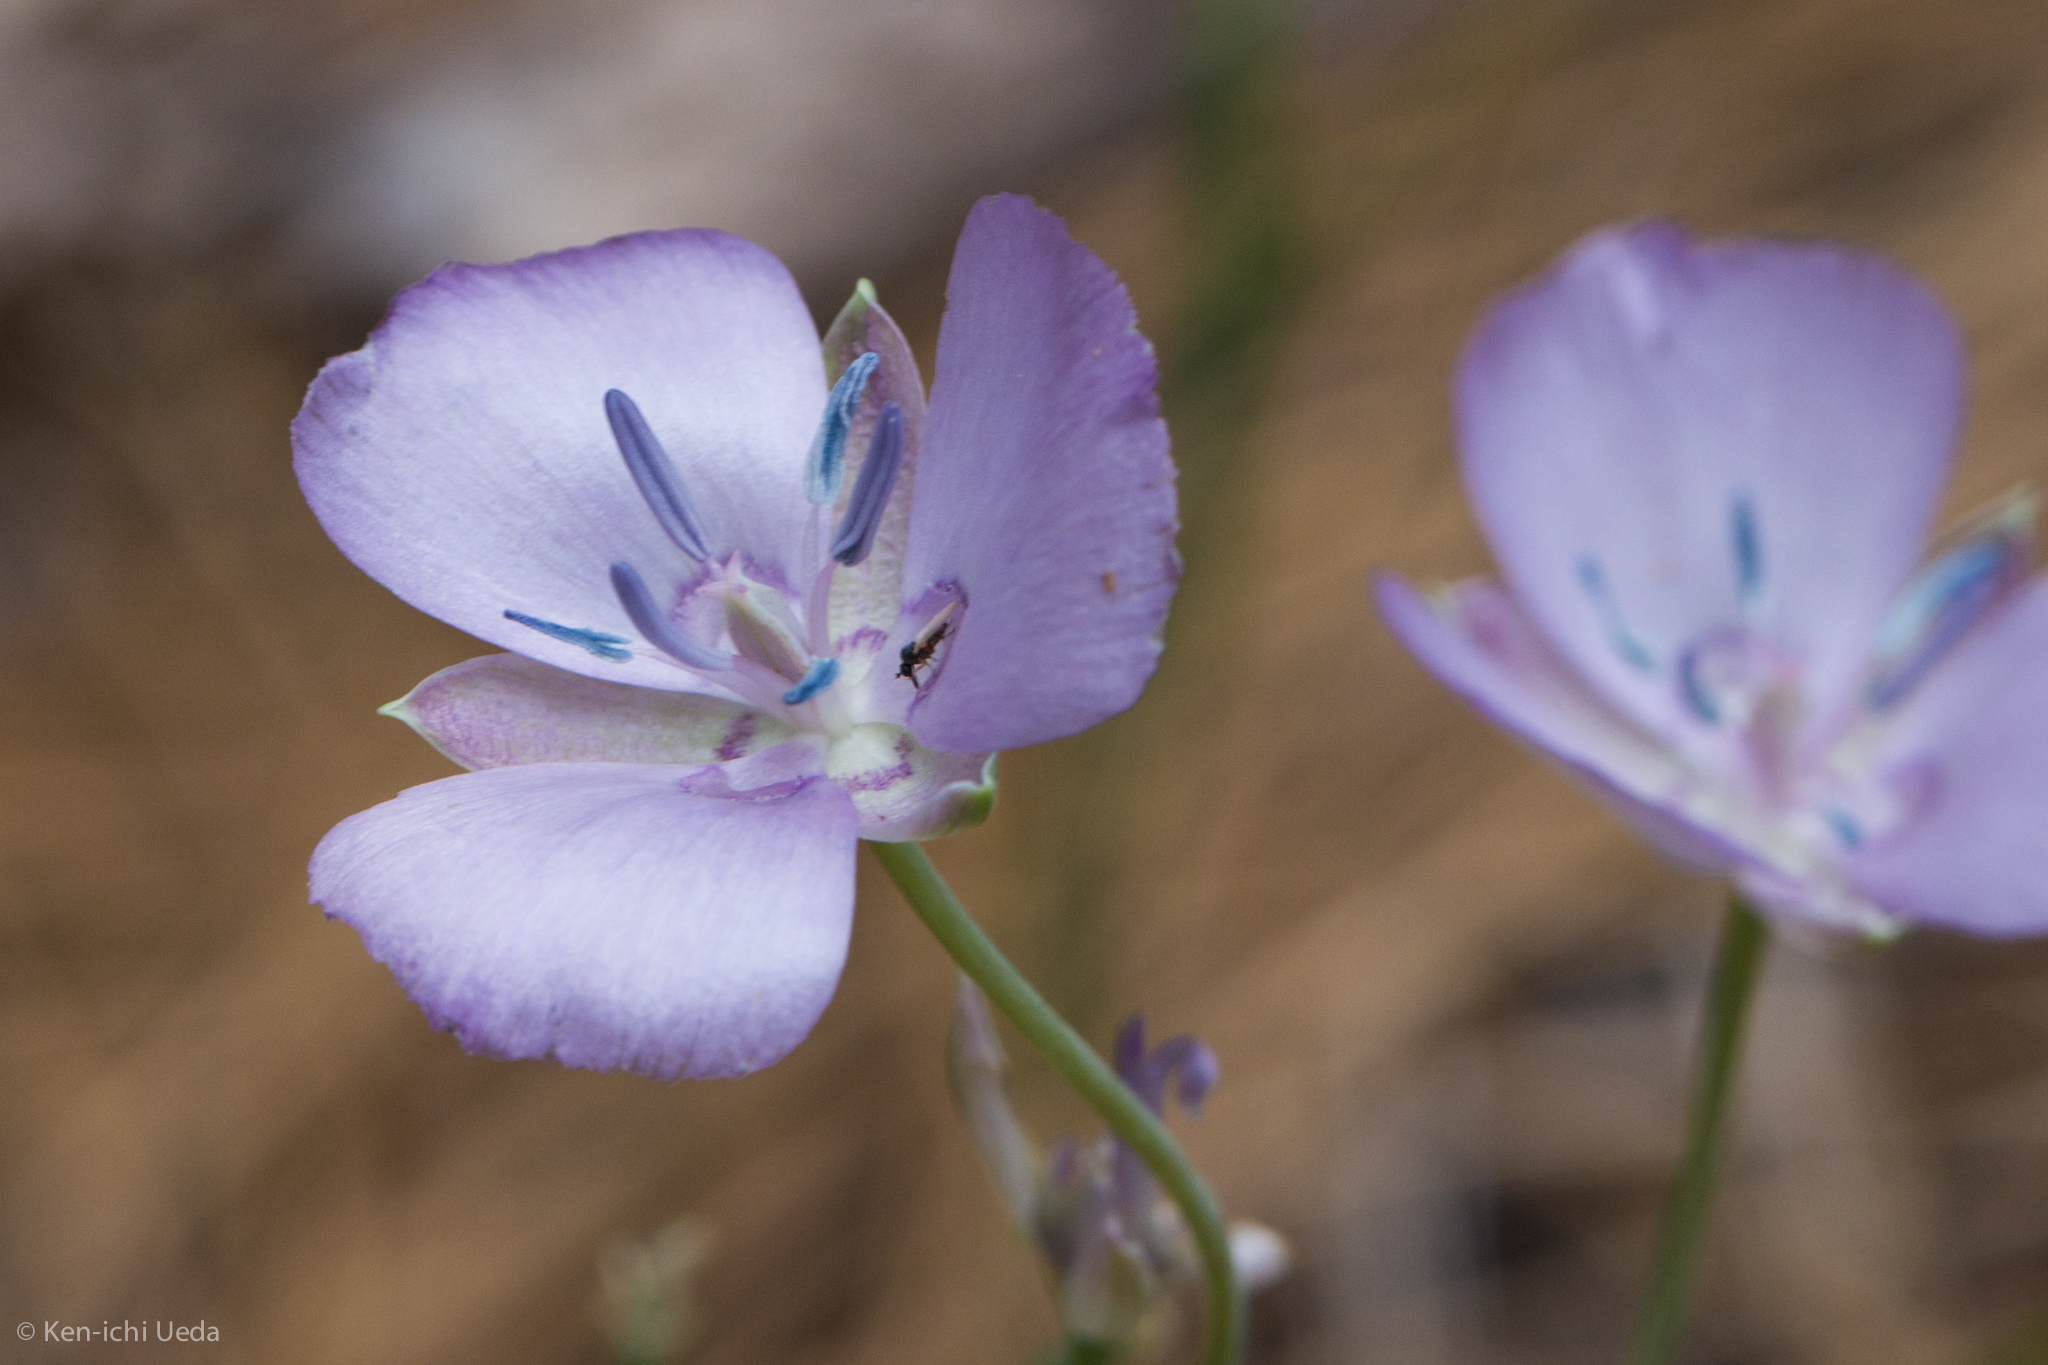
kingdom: Plantae
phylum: Tracheophyta
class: Liliopsida
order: Liliales
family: Liliaceae
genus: Calochortus
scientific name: Calochortus nudus
